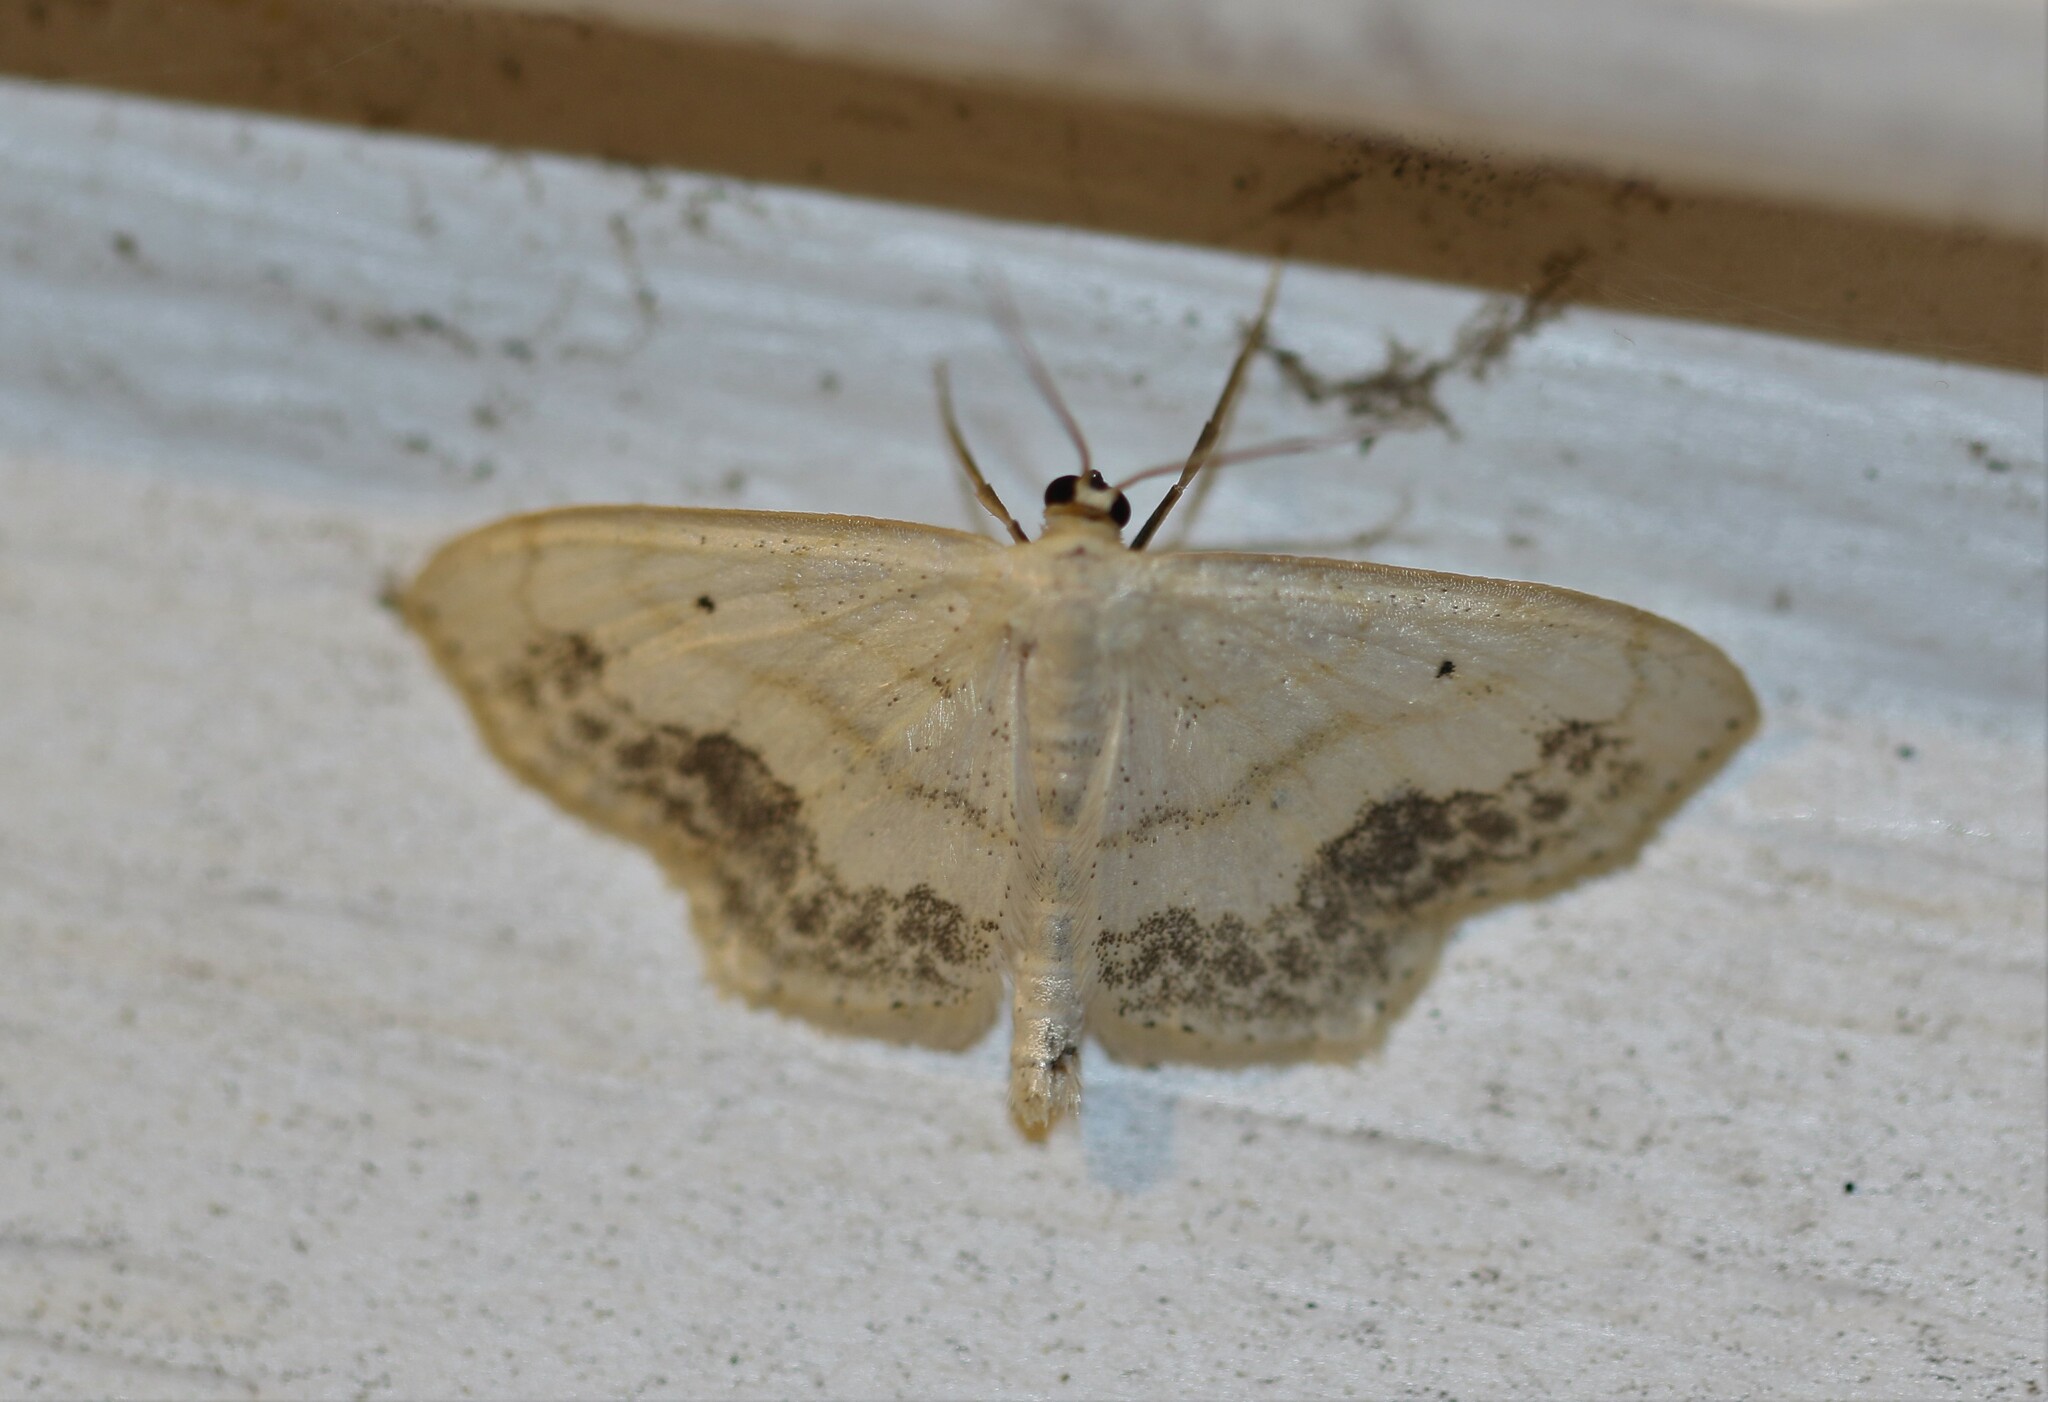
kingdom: Animalia
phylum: Arthropoda
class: Insecta
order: Lepidoptera
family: Geometridae
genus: Scopula
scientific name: Scopula limboundata
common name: Large lace border
